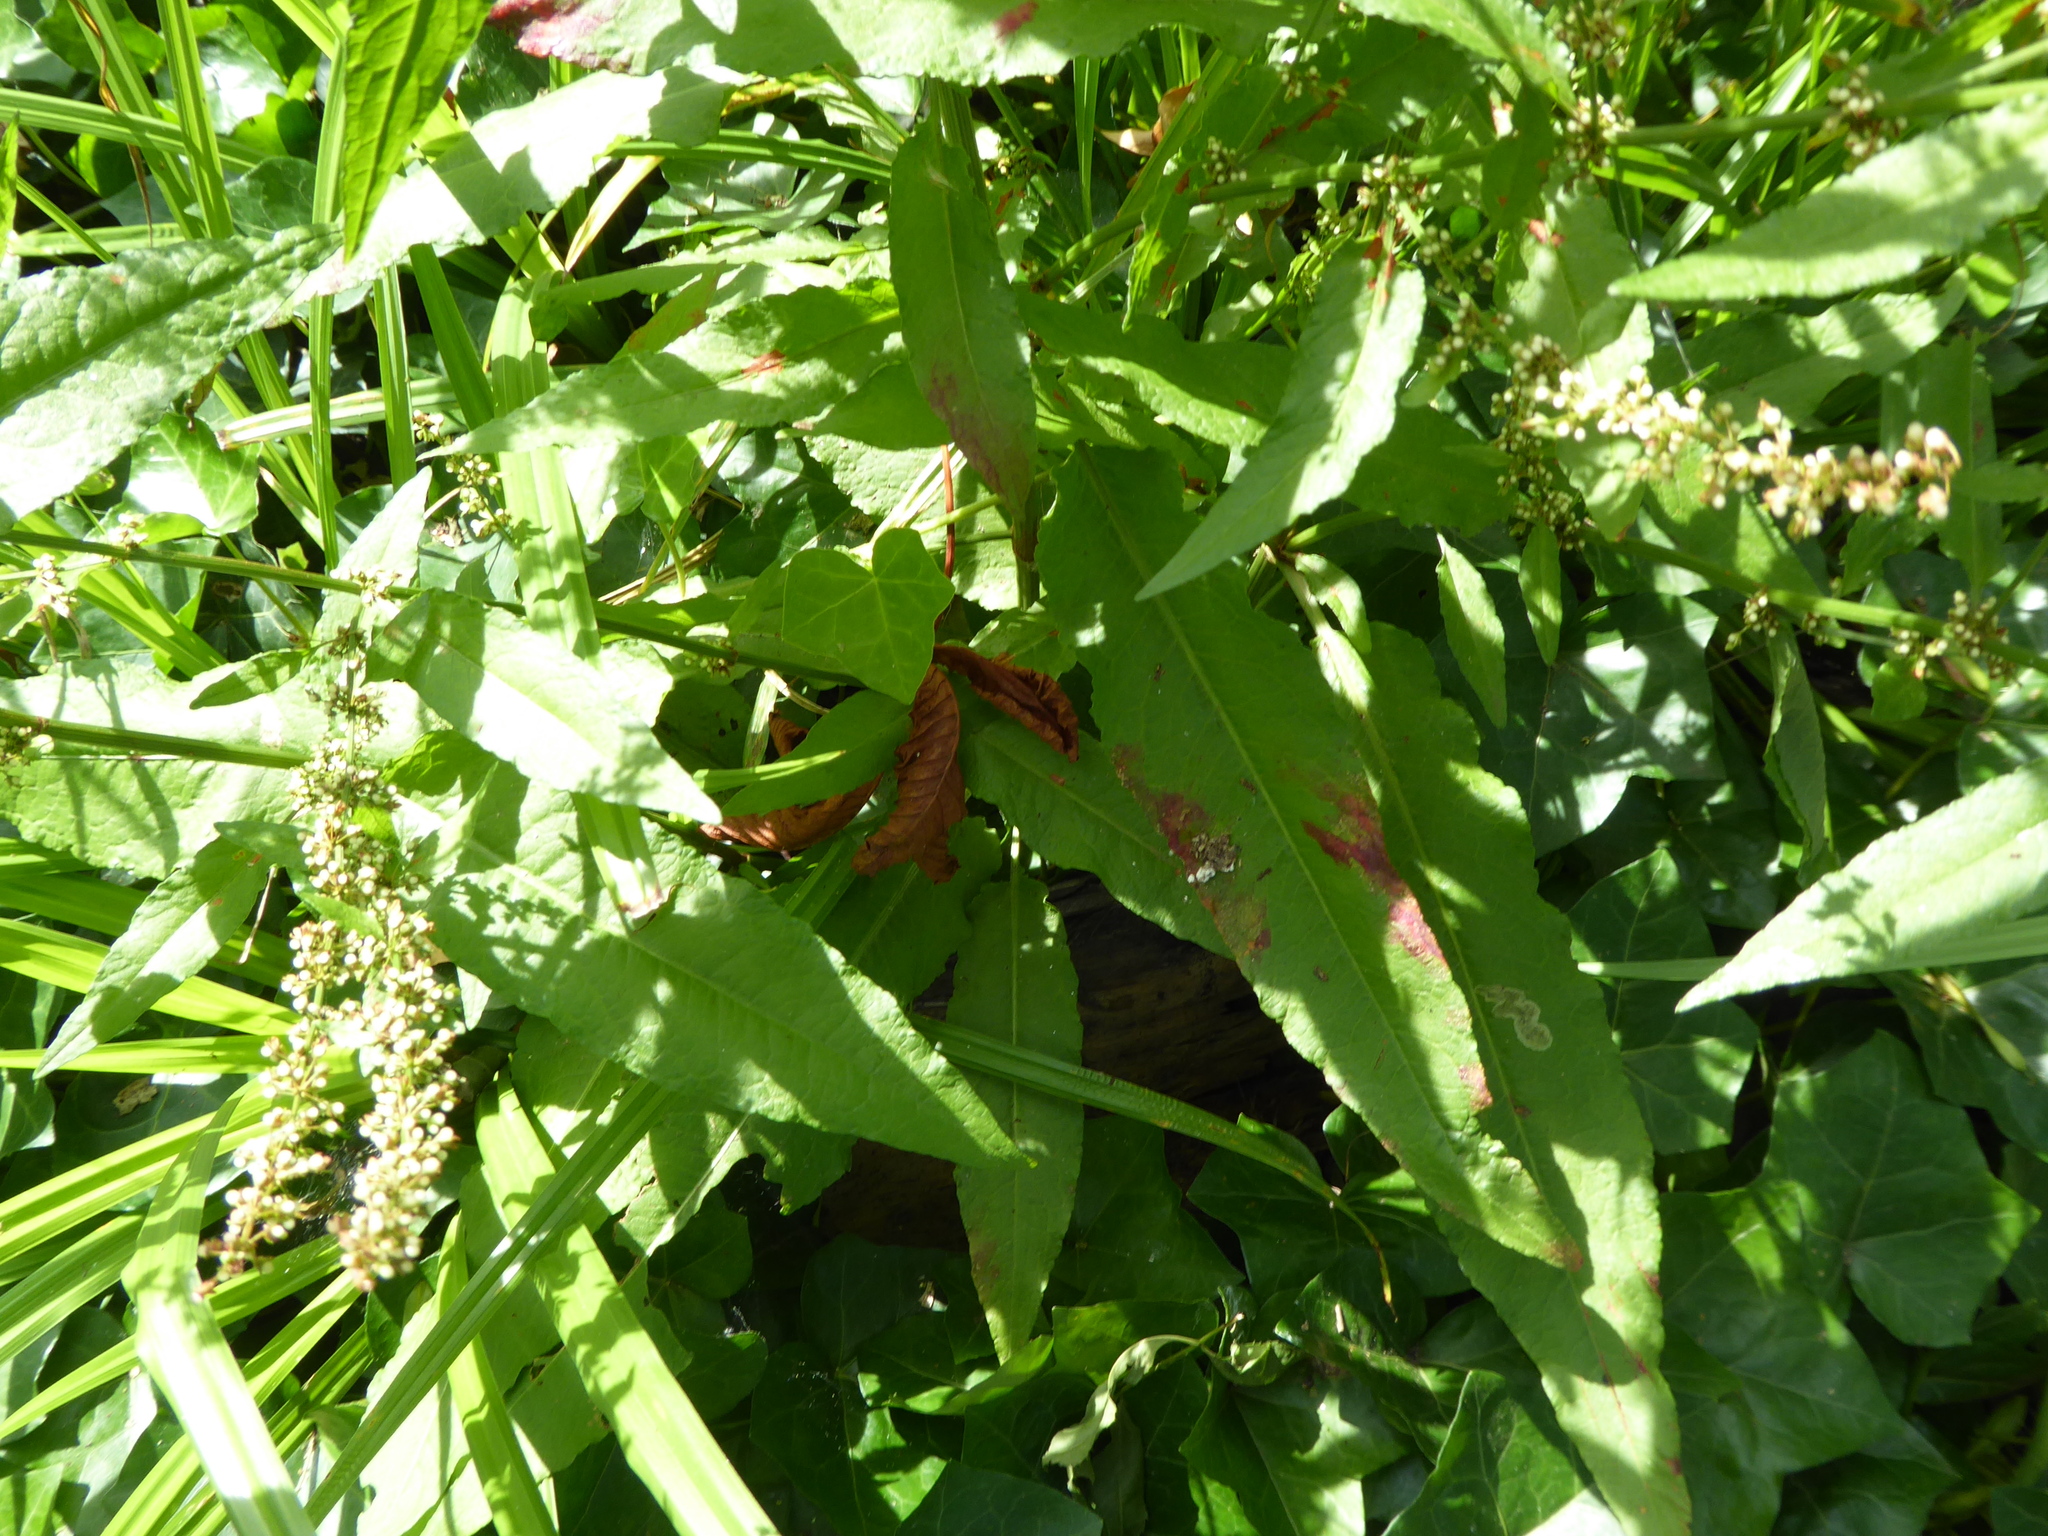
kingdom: Plantae
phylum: Tracheophyta
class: Magnoliopsida
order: Caryophyllales
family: Polygonaceae
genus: Rumex
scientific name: Rumex sanguineus
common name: Wood dock
